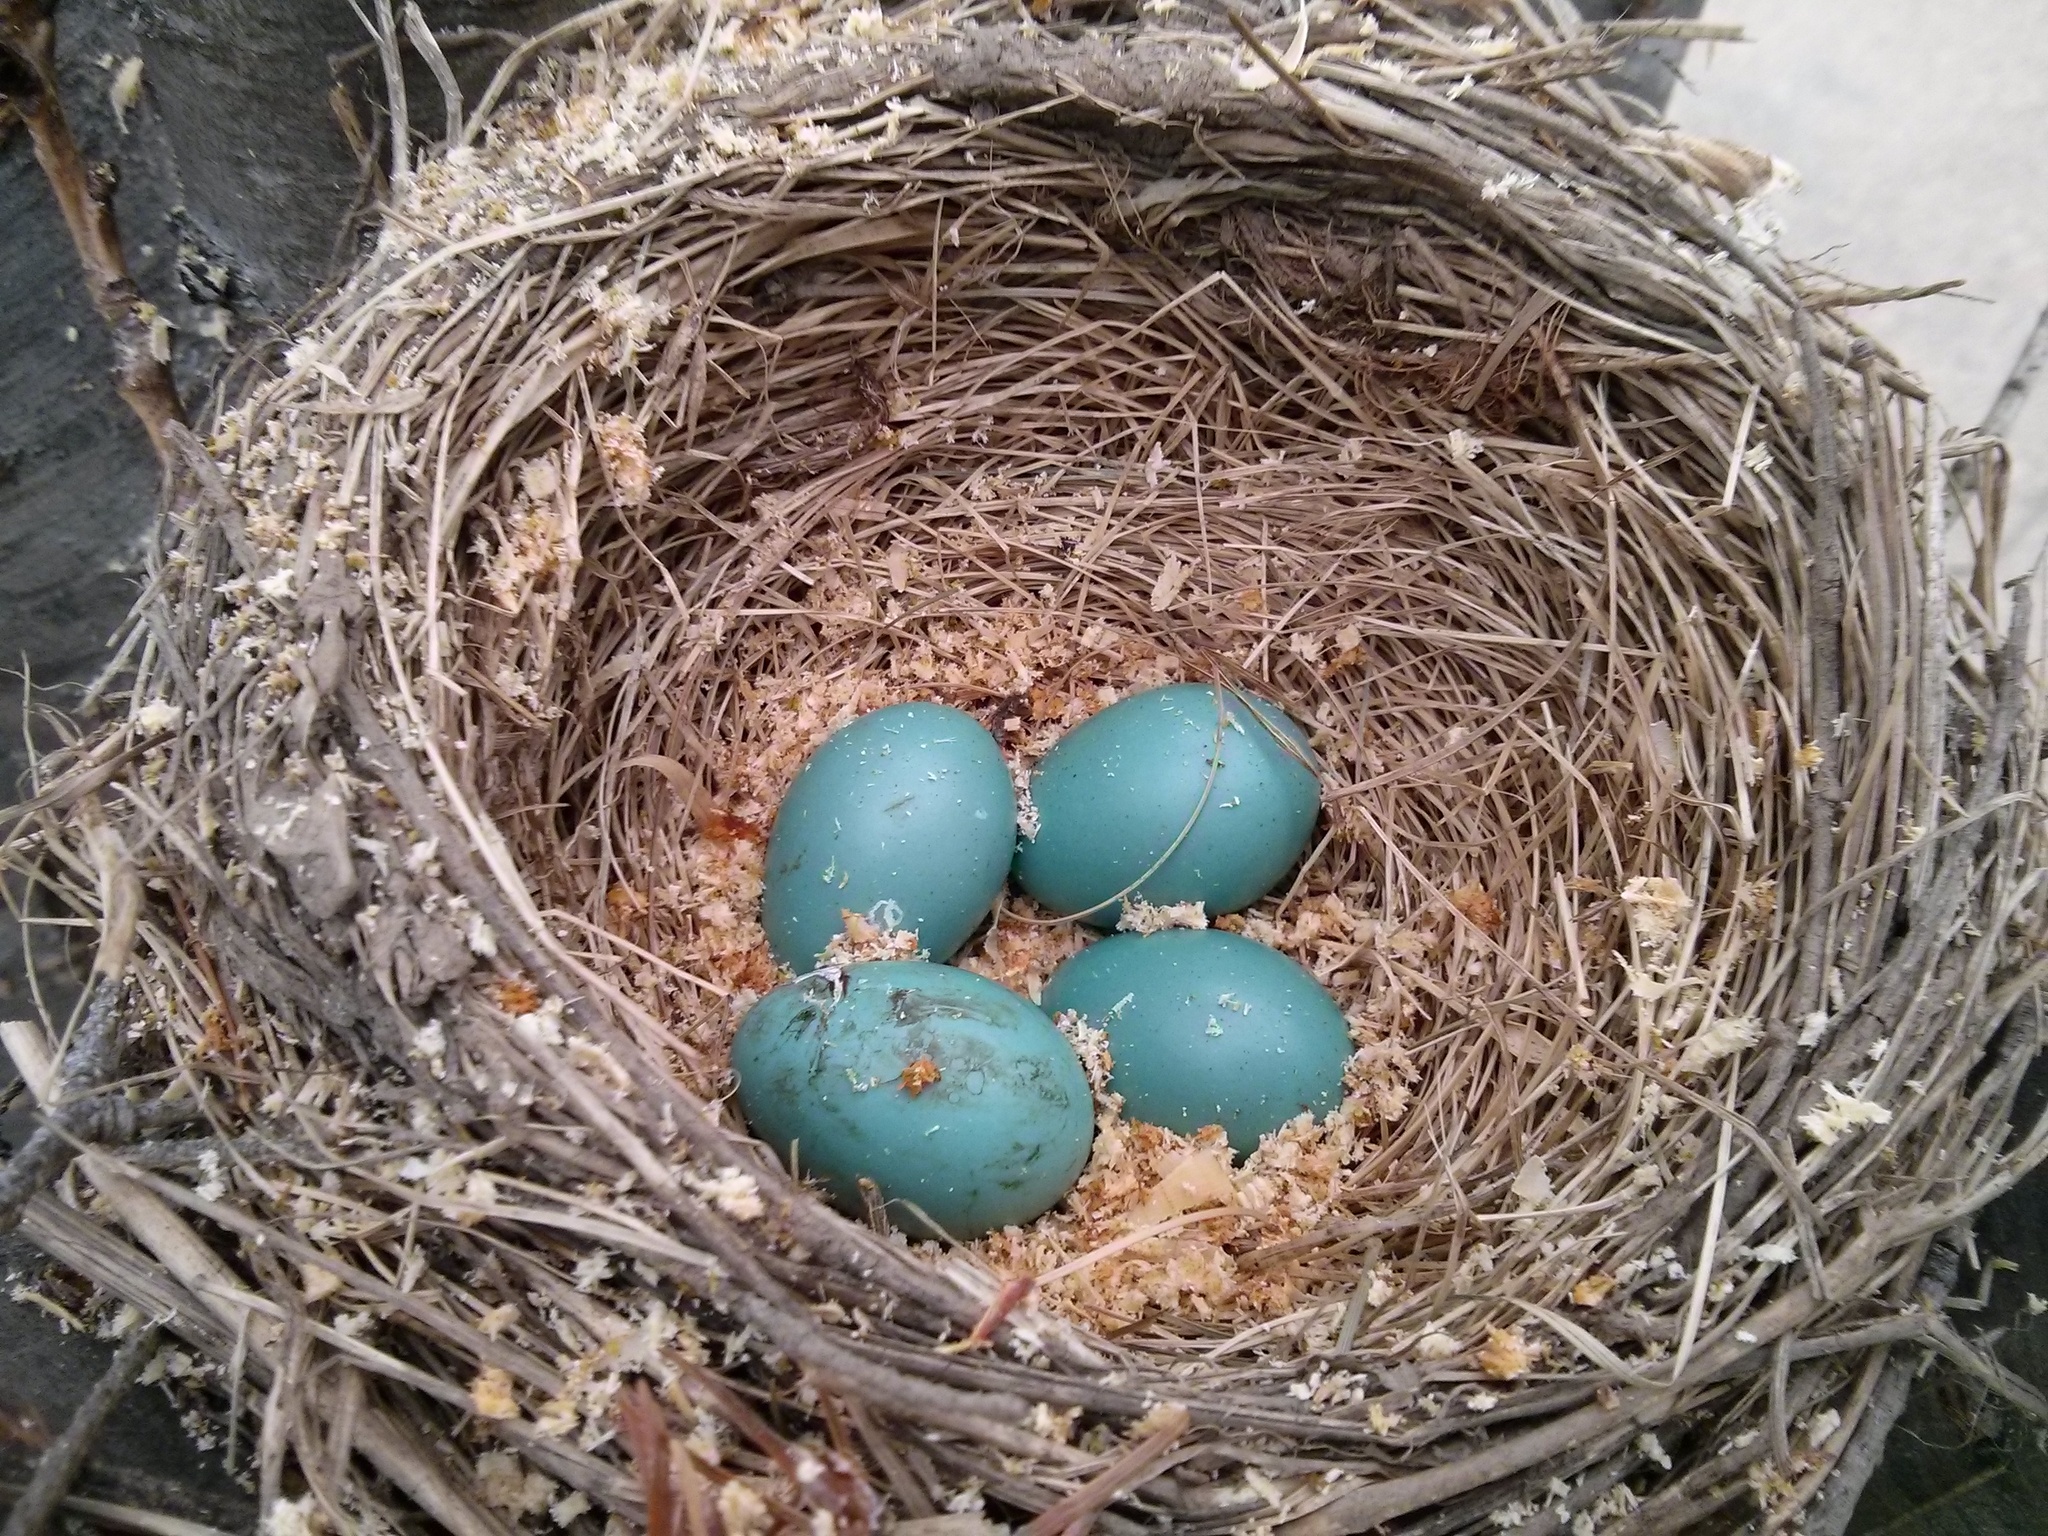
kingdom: Animalia
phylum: Chordata
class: Aves
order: Passeriformes
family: Turdidae
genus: Turdus
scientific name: Turdus migratorius
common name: American robin
